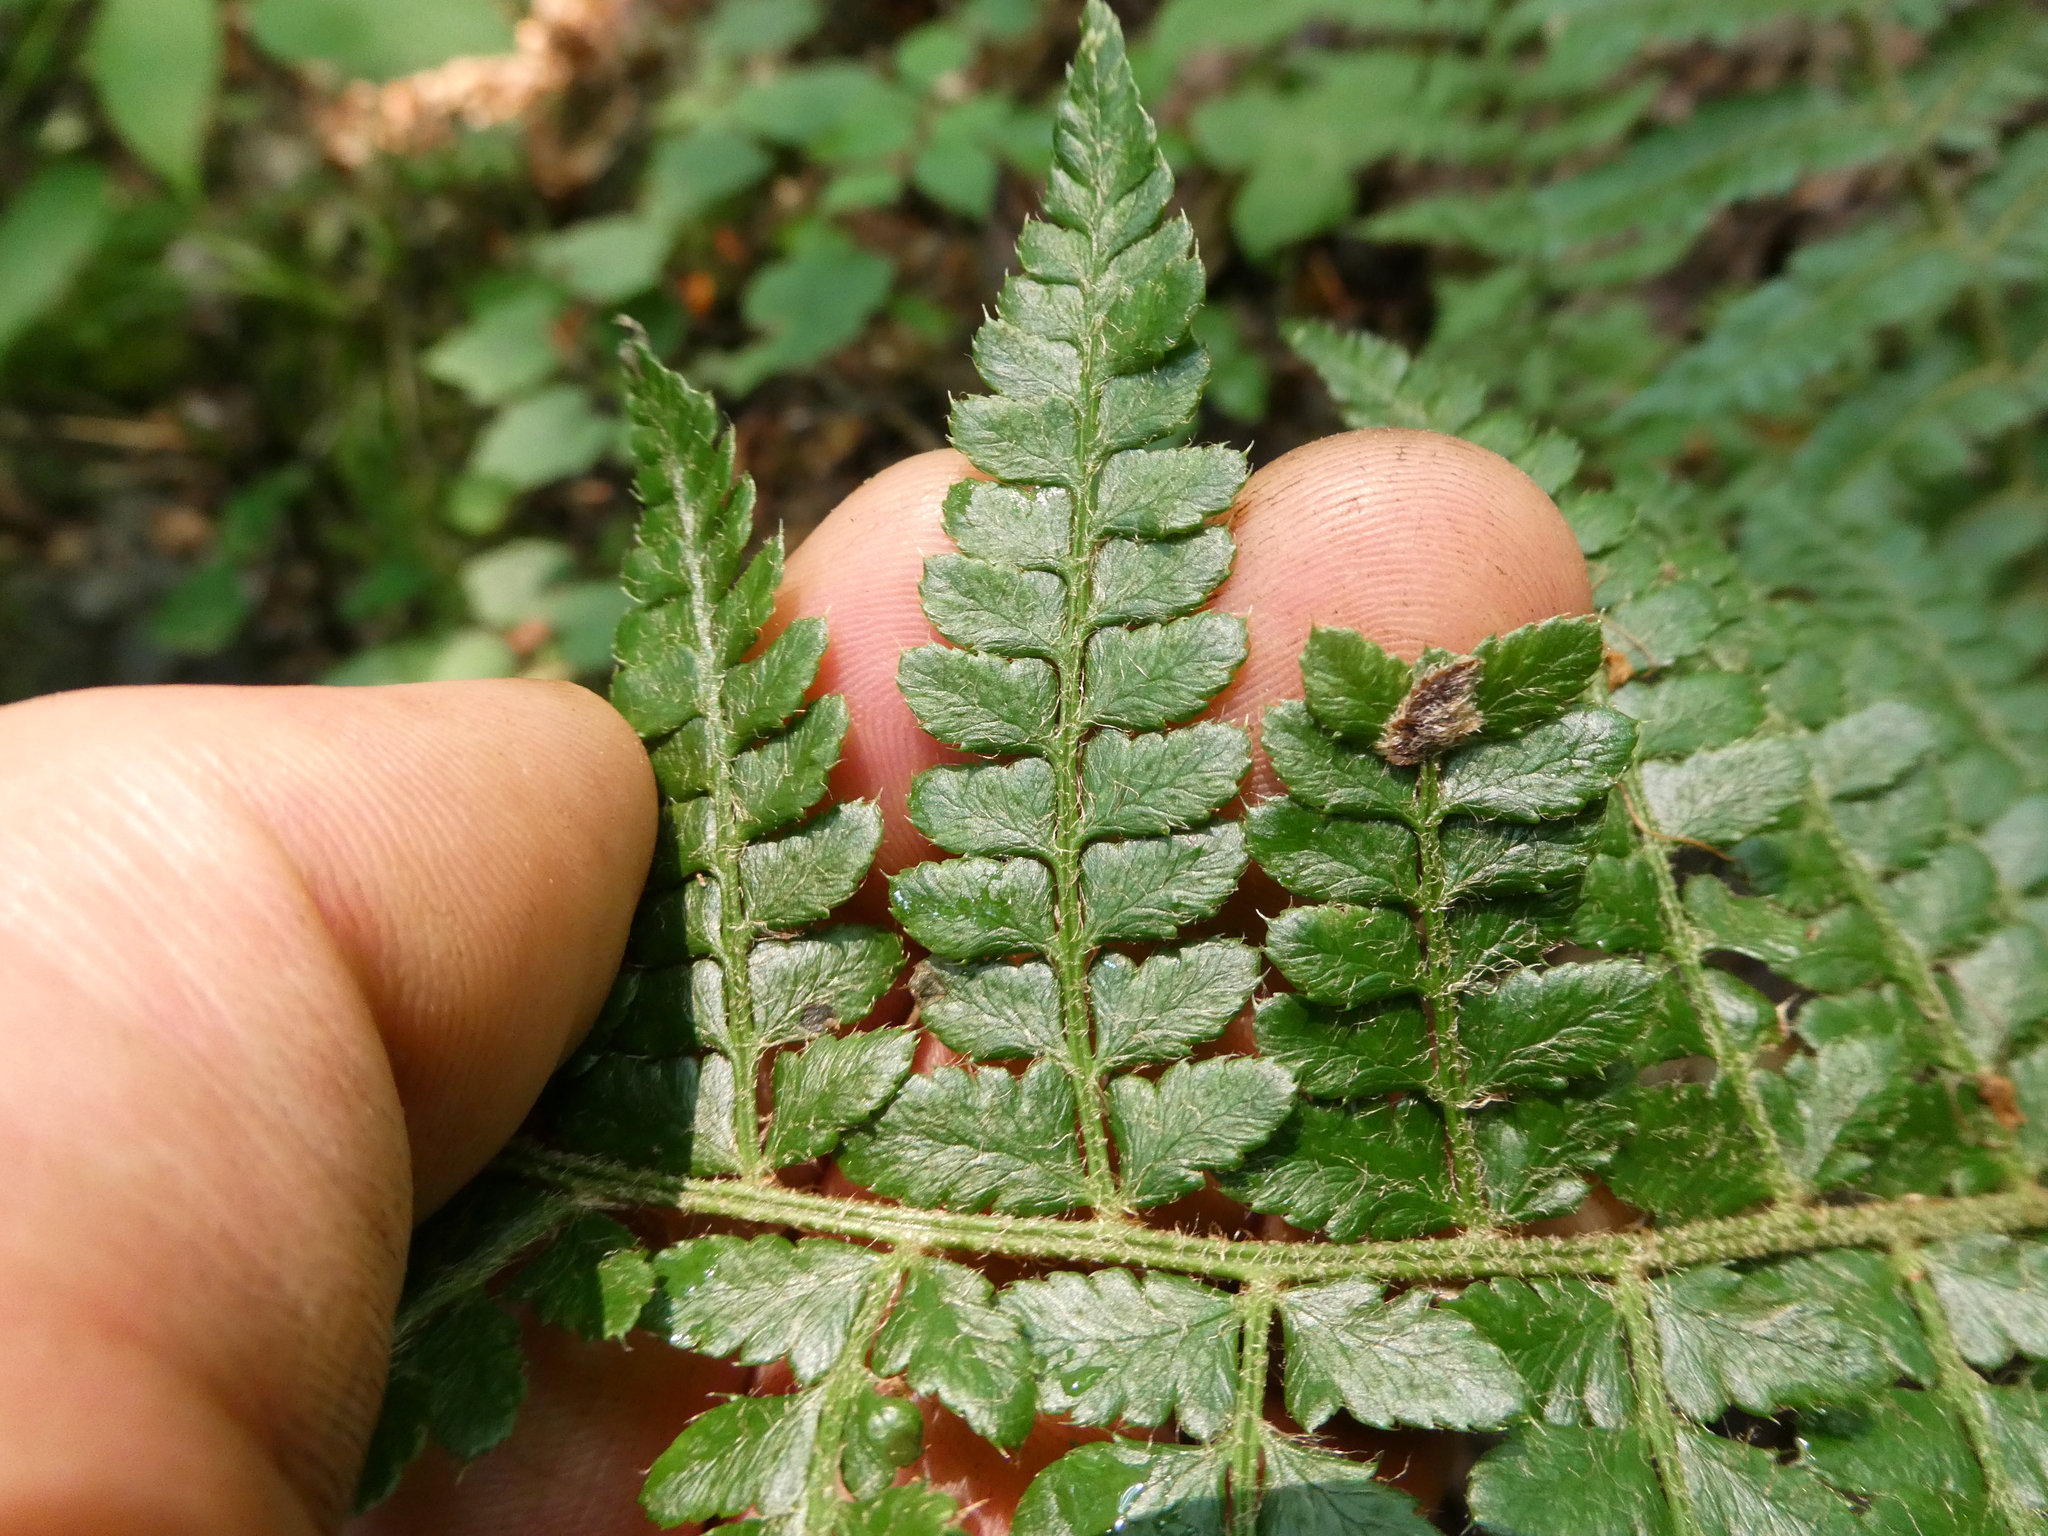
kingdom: Plantae
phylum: Tracheophyta
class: Polypodiopsida
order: Polypodiales
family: Dryopteridaceae
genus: Polystichum
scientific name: Polystichum braunii
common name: Braun's holly fern
